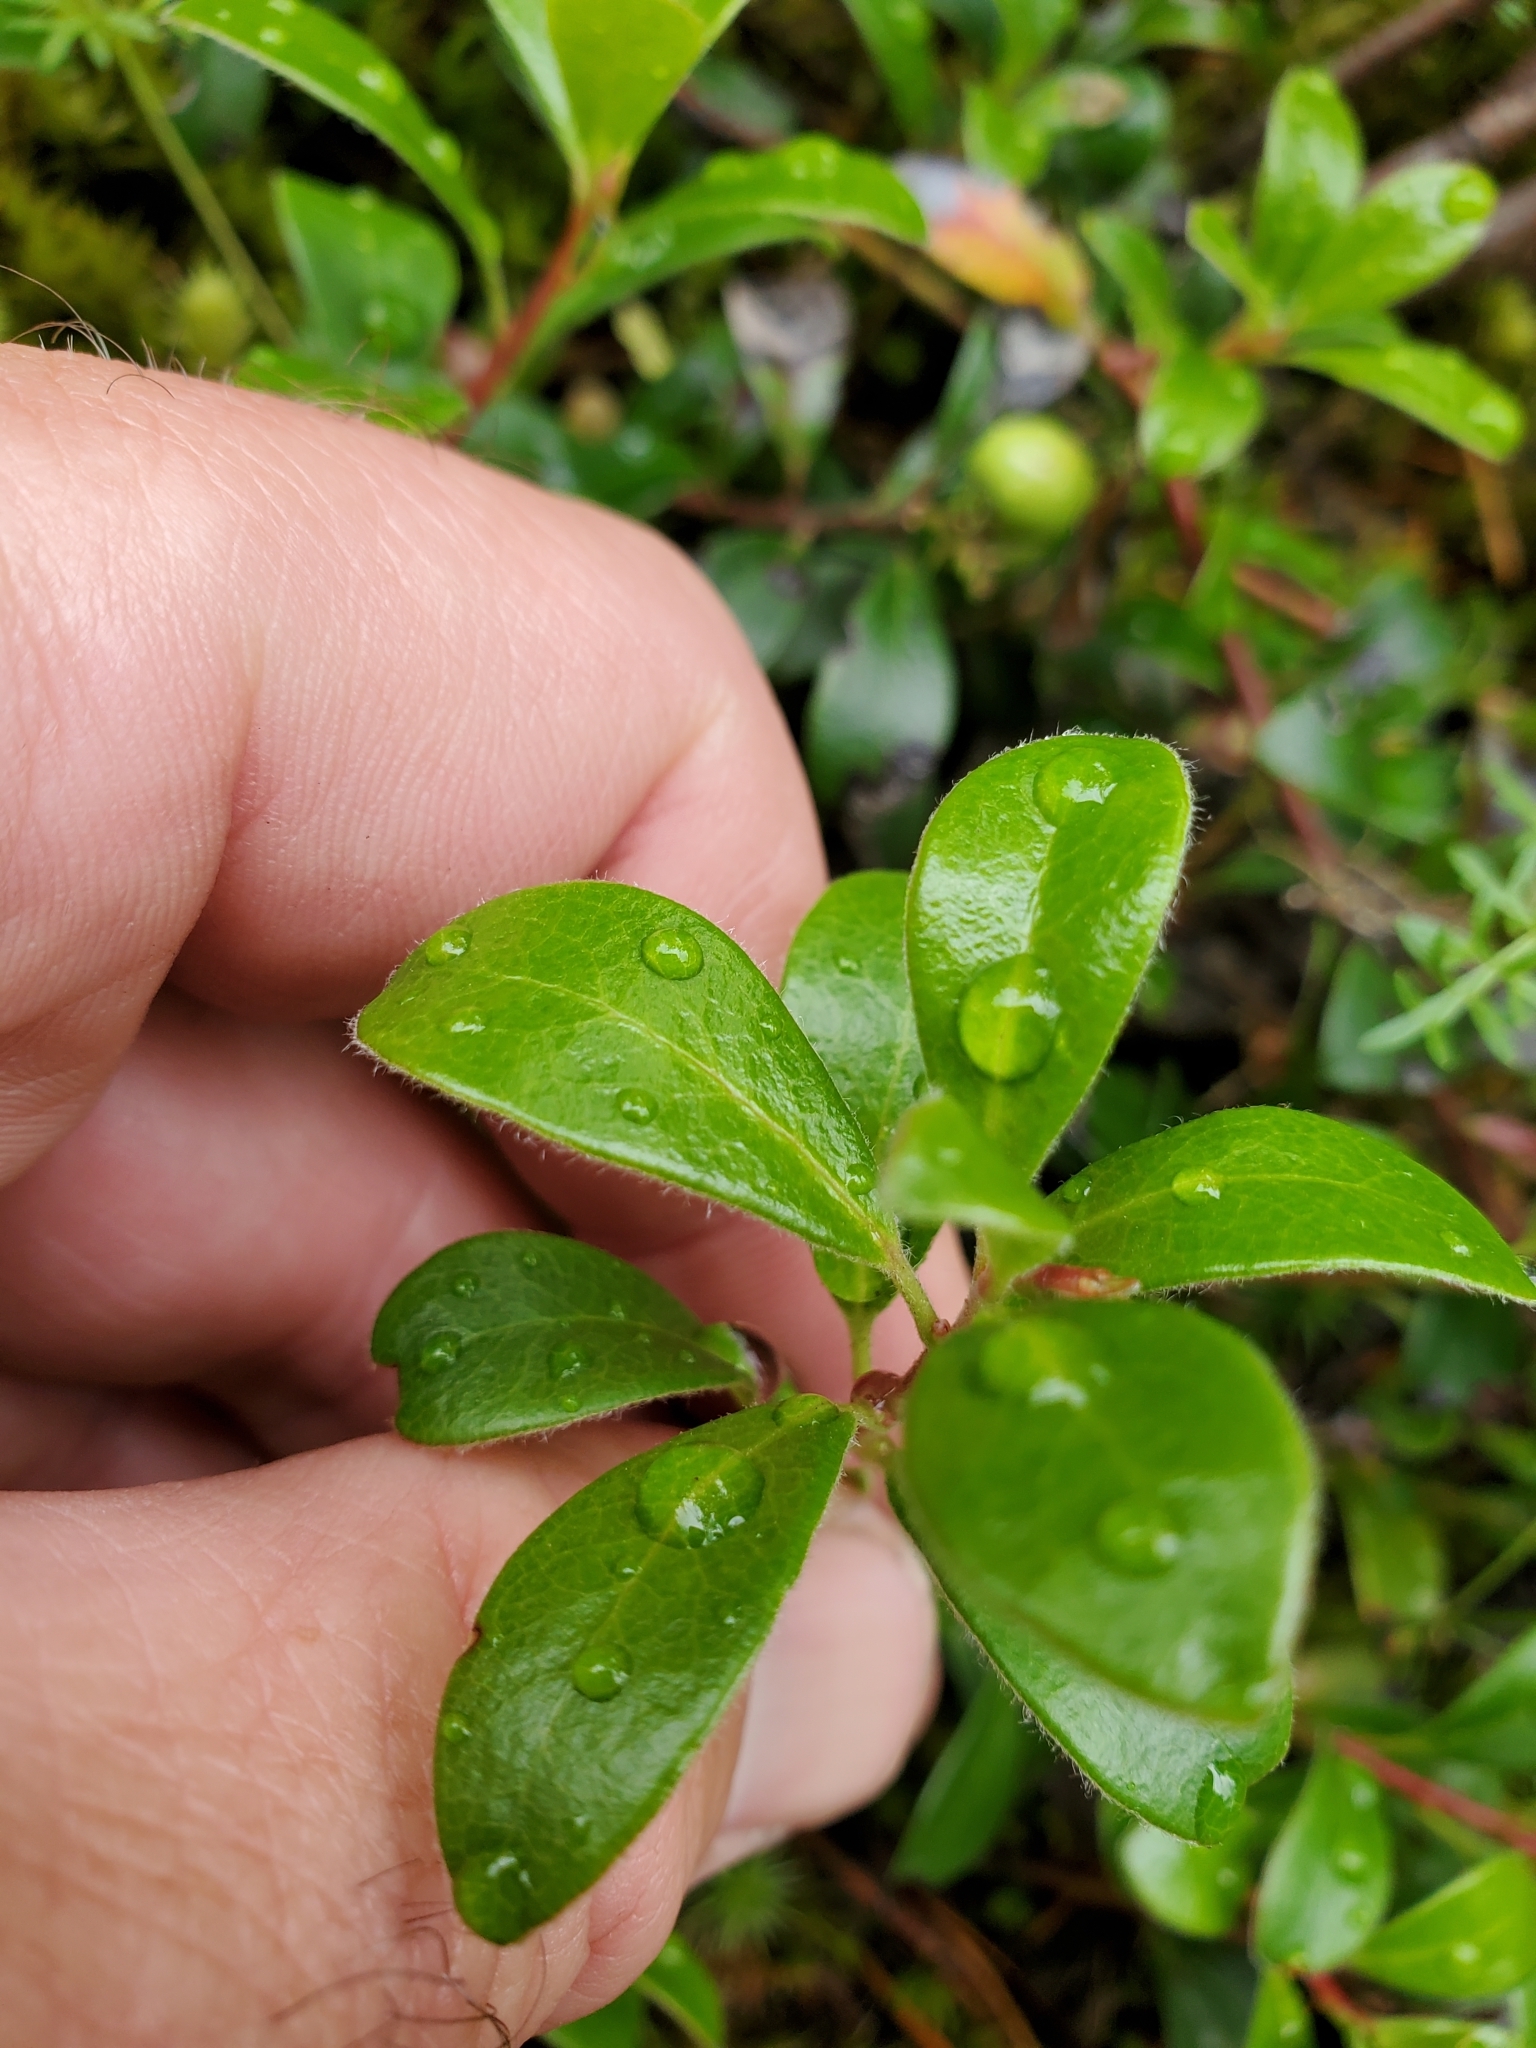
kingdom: Plantae
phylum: Tracheophyta
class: Magnoliopsida
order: Ericales
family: Ericaceae
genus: Arctostaphylos
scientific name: Arctostaphylos uva-ursi
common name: Bearberry
